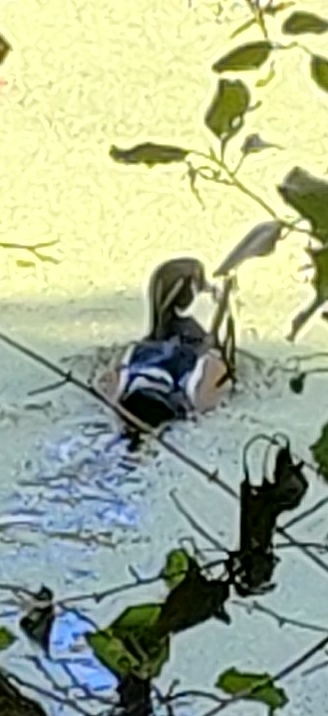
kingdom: Animalia
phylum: Chordata
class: Aves
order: Anseriformes
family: Anatidae
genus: Aix
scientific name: Aix sponsa
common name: Wood duck
